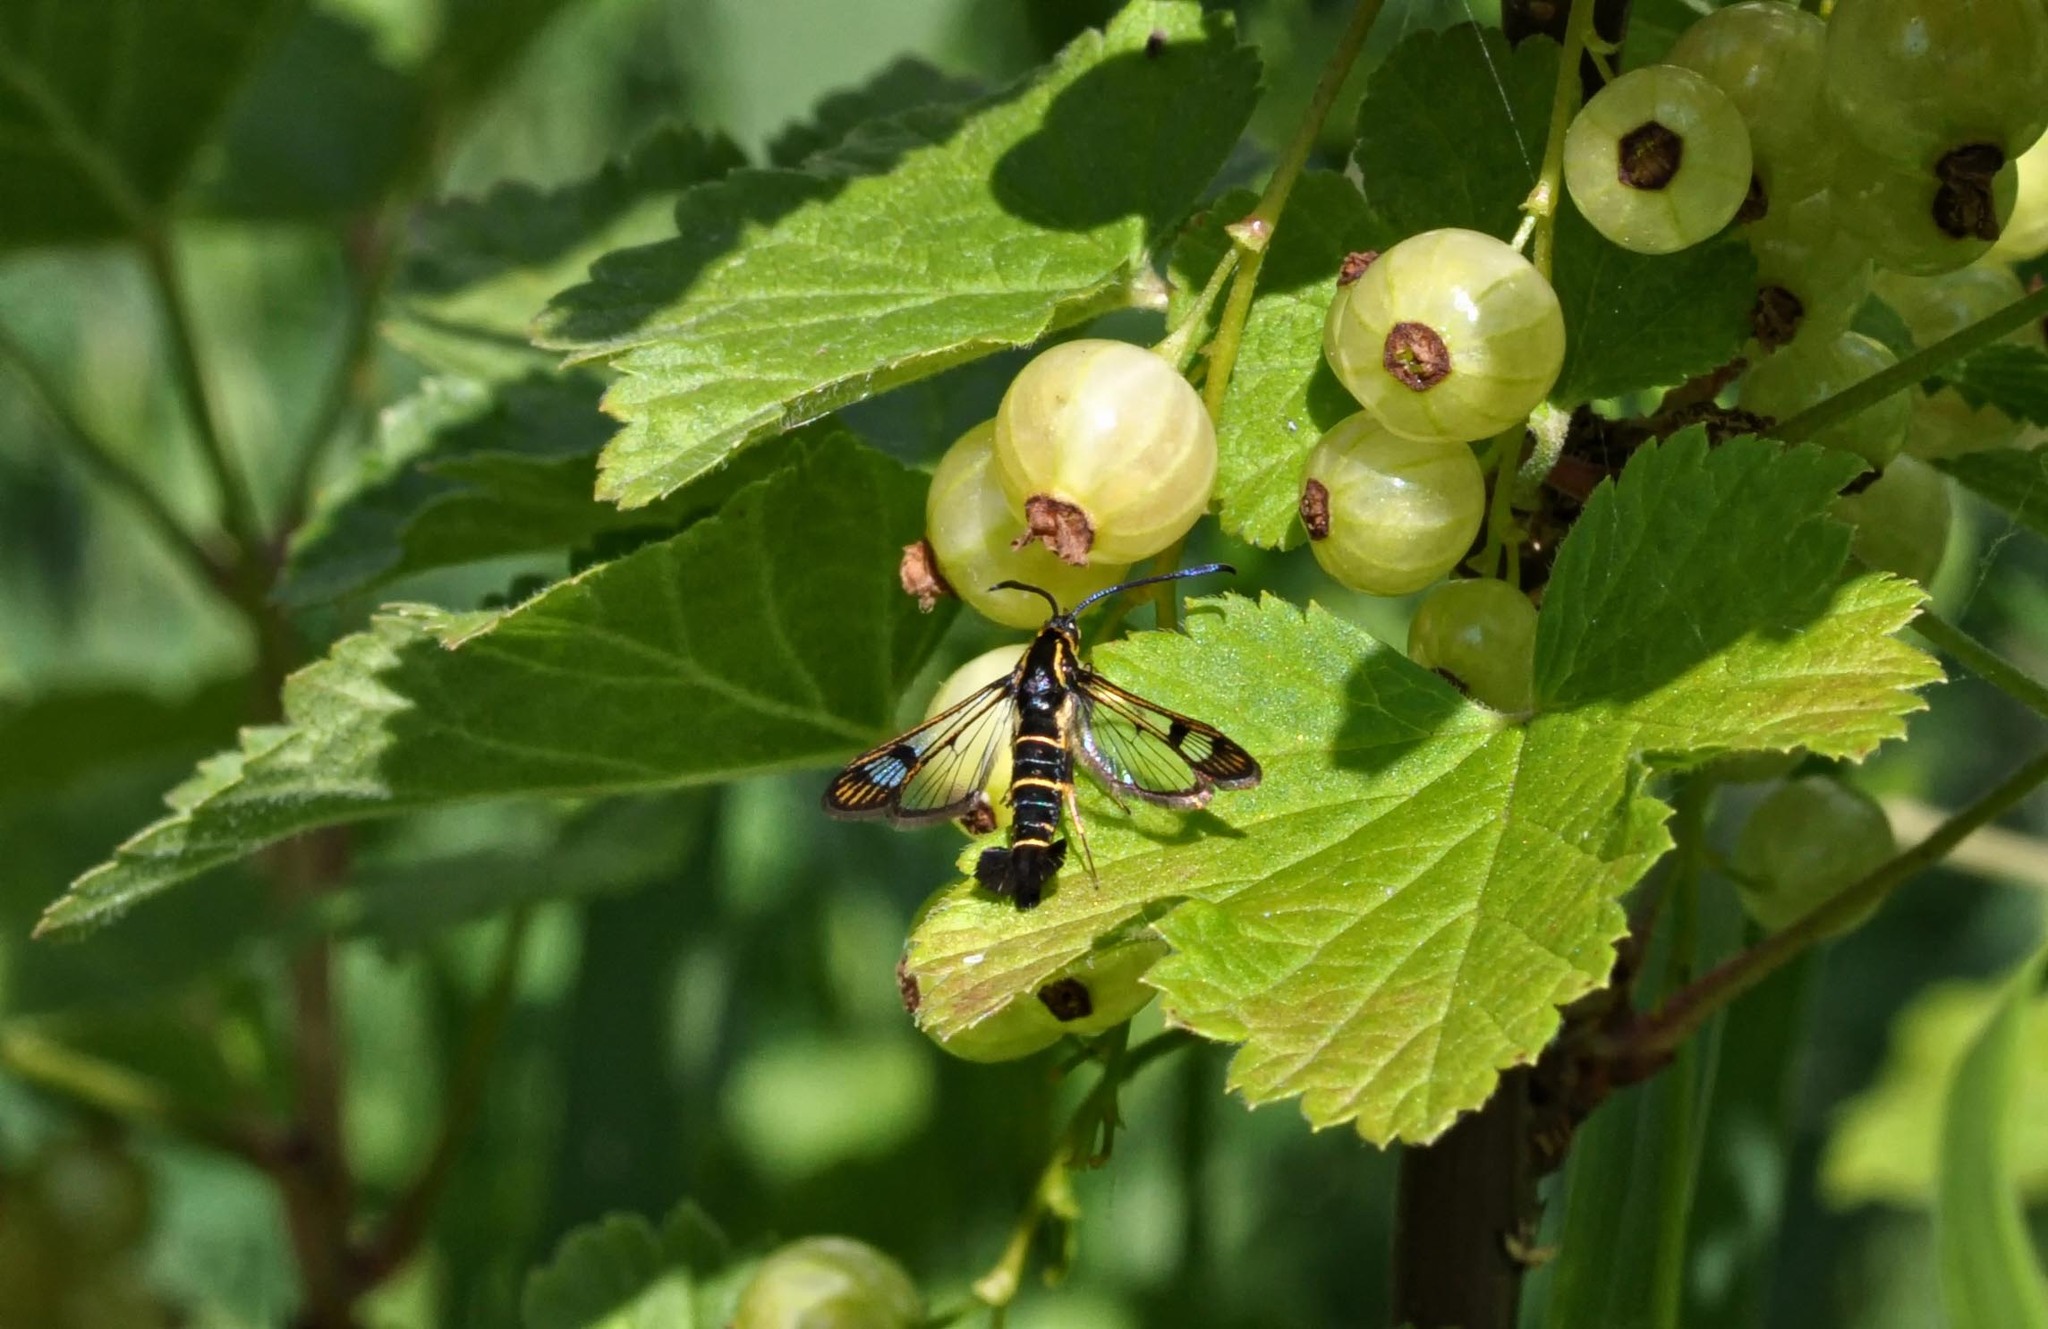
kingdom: Animalia
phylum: Arthropoda
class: Insecta
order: Lepidoptera
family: Sesiidae
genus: Synanthedon
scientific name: Synanthedon tipuliformis
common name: Currant clearwing
